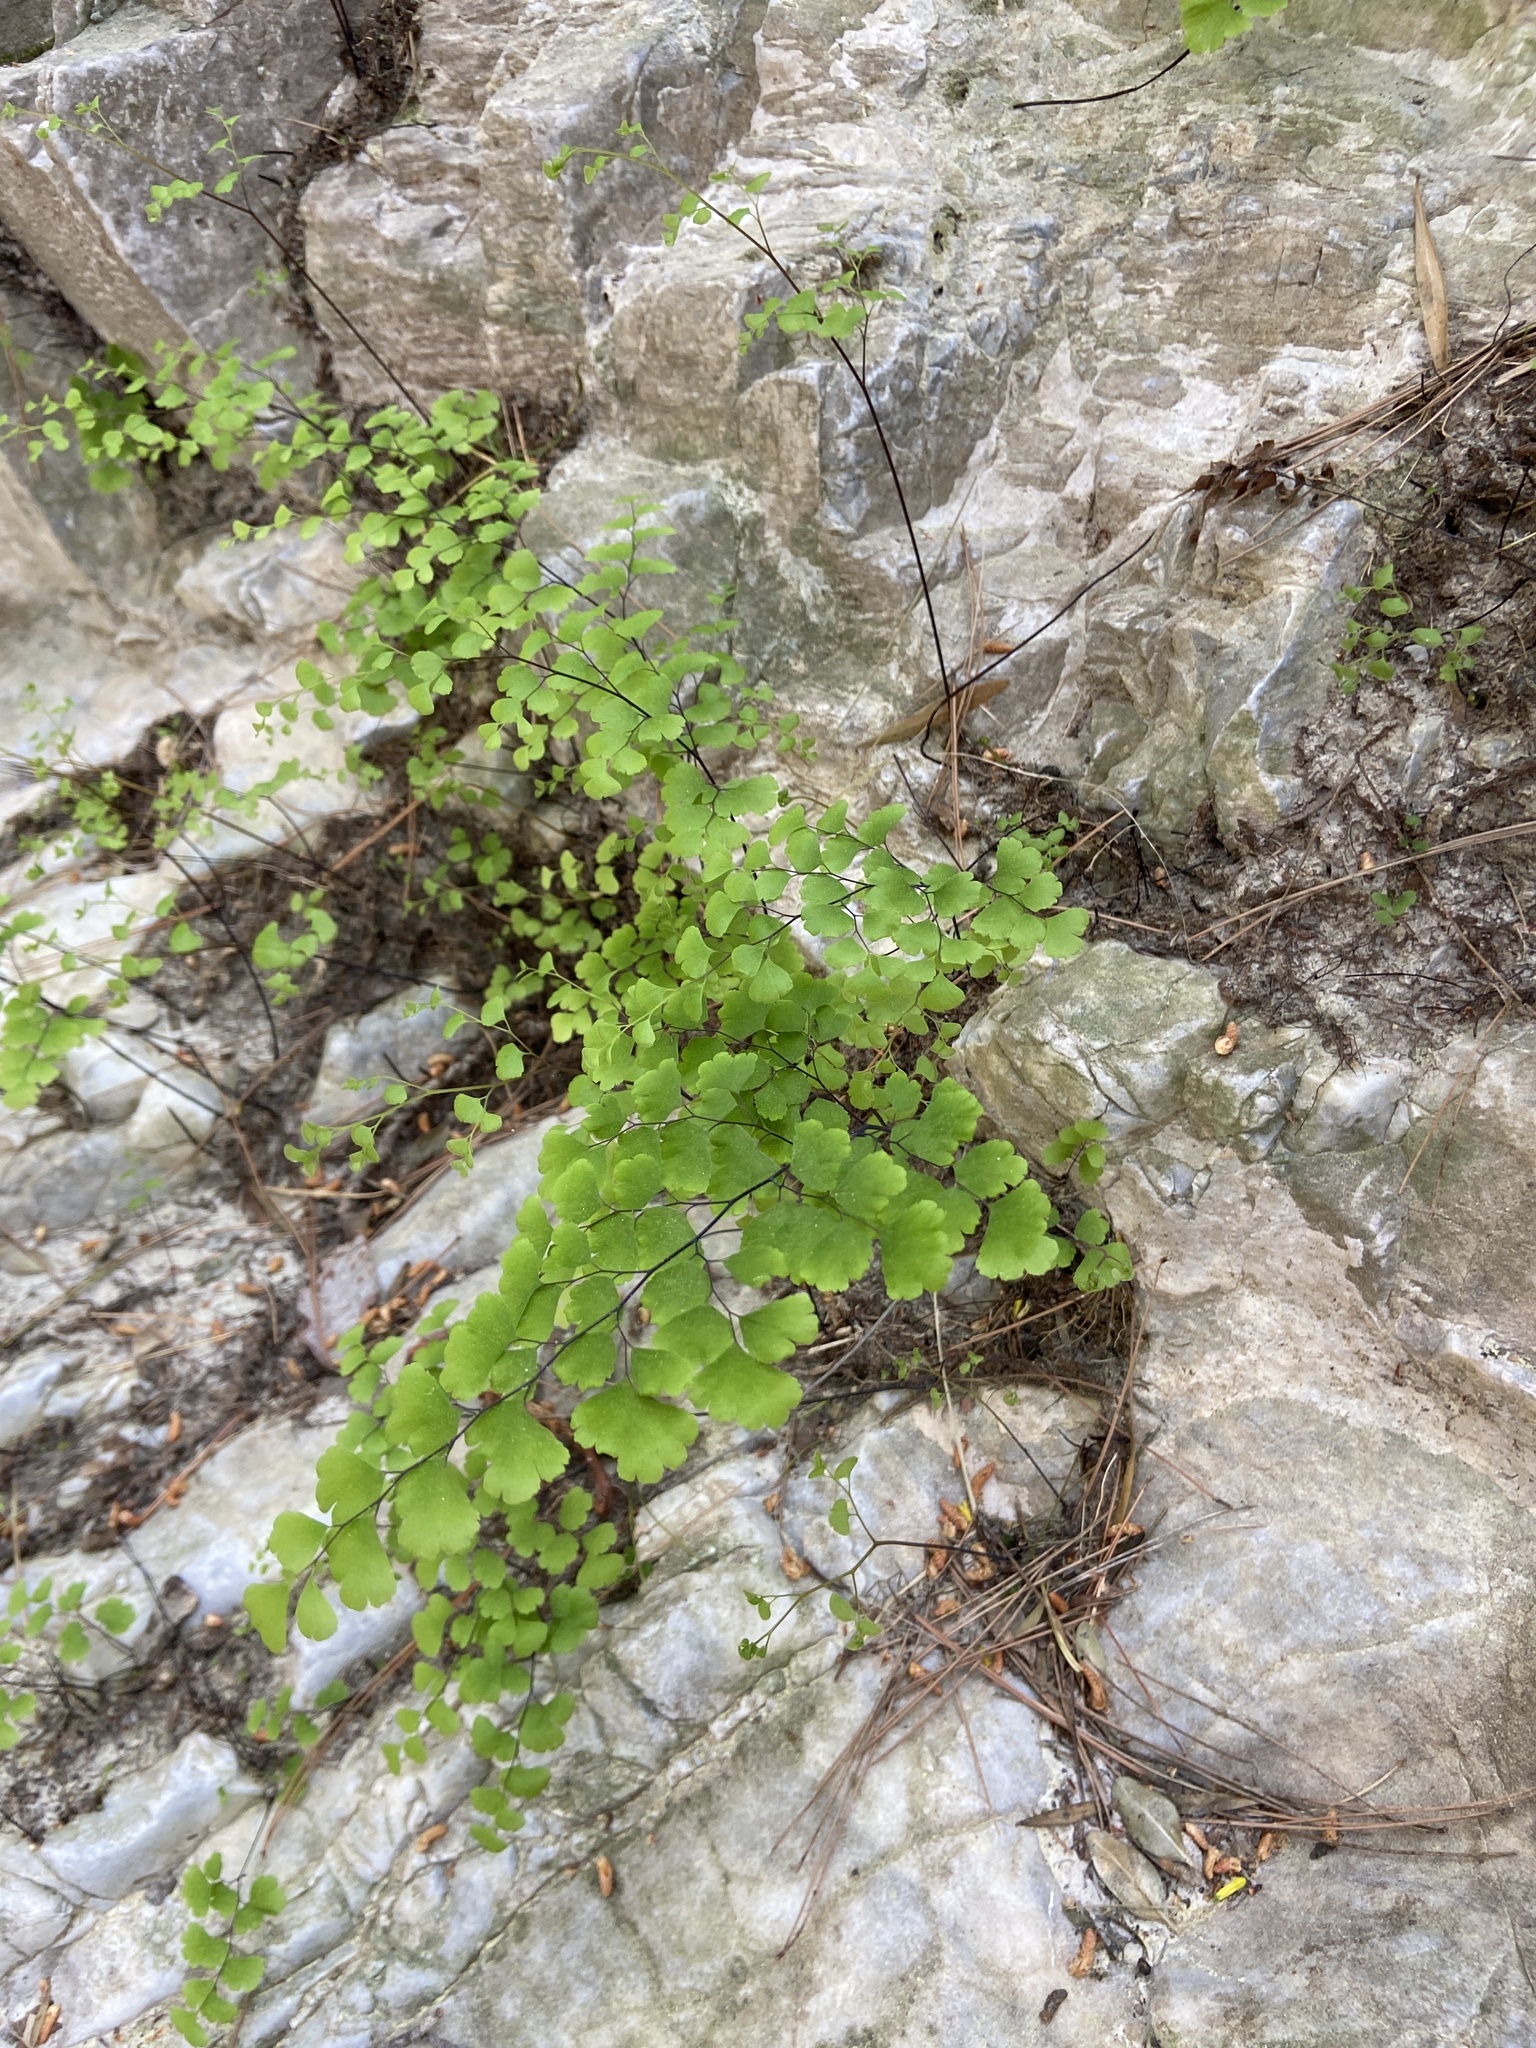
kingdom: Plantae
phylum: Tracheophyta
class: Polypodiopsida
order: Polypodiales
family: Pteridaceae
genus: Adiantum
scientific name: Adiantum capillus-veneris
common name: Maidenhair fern
